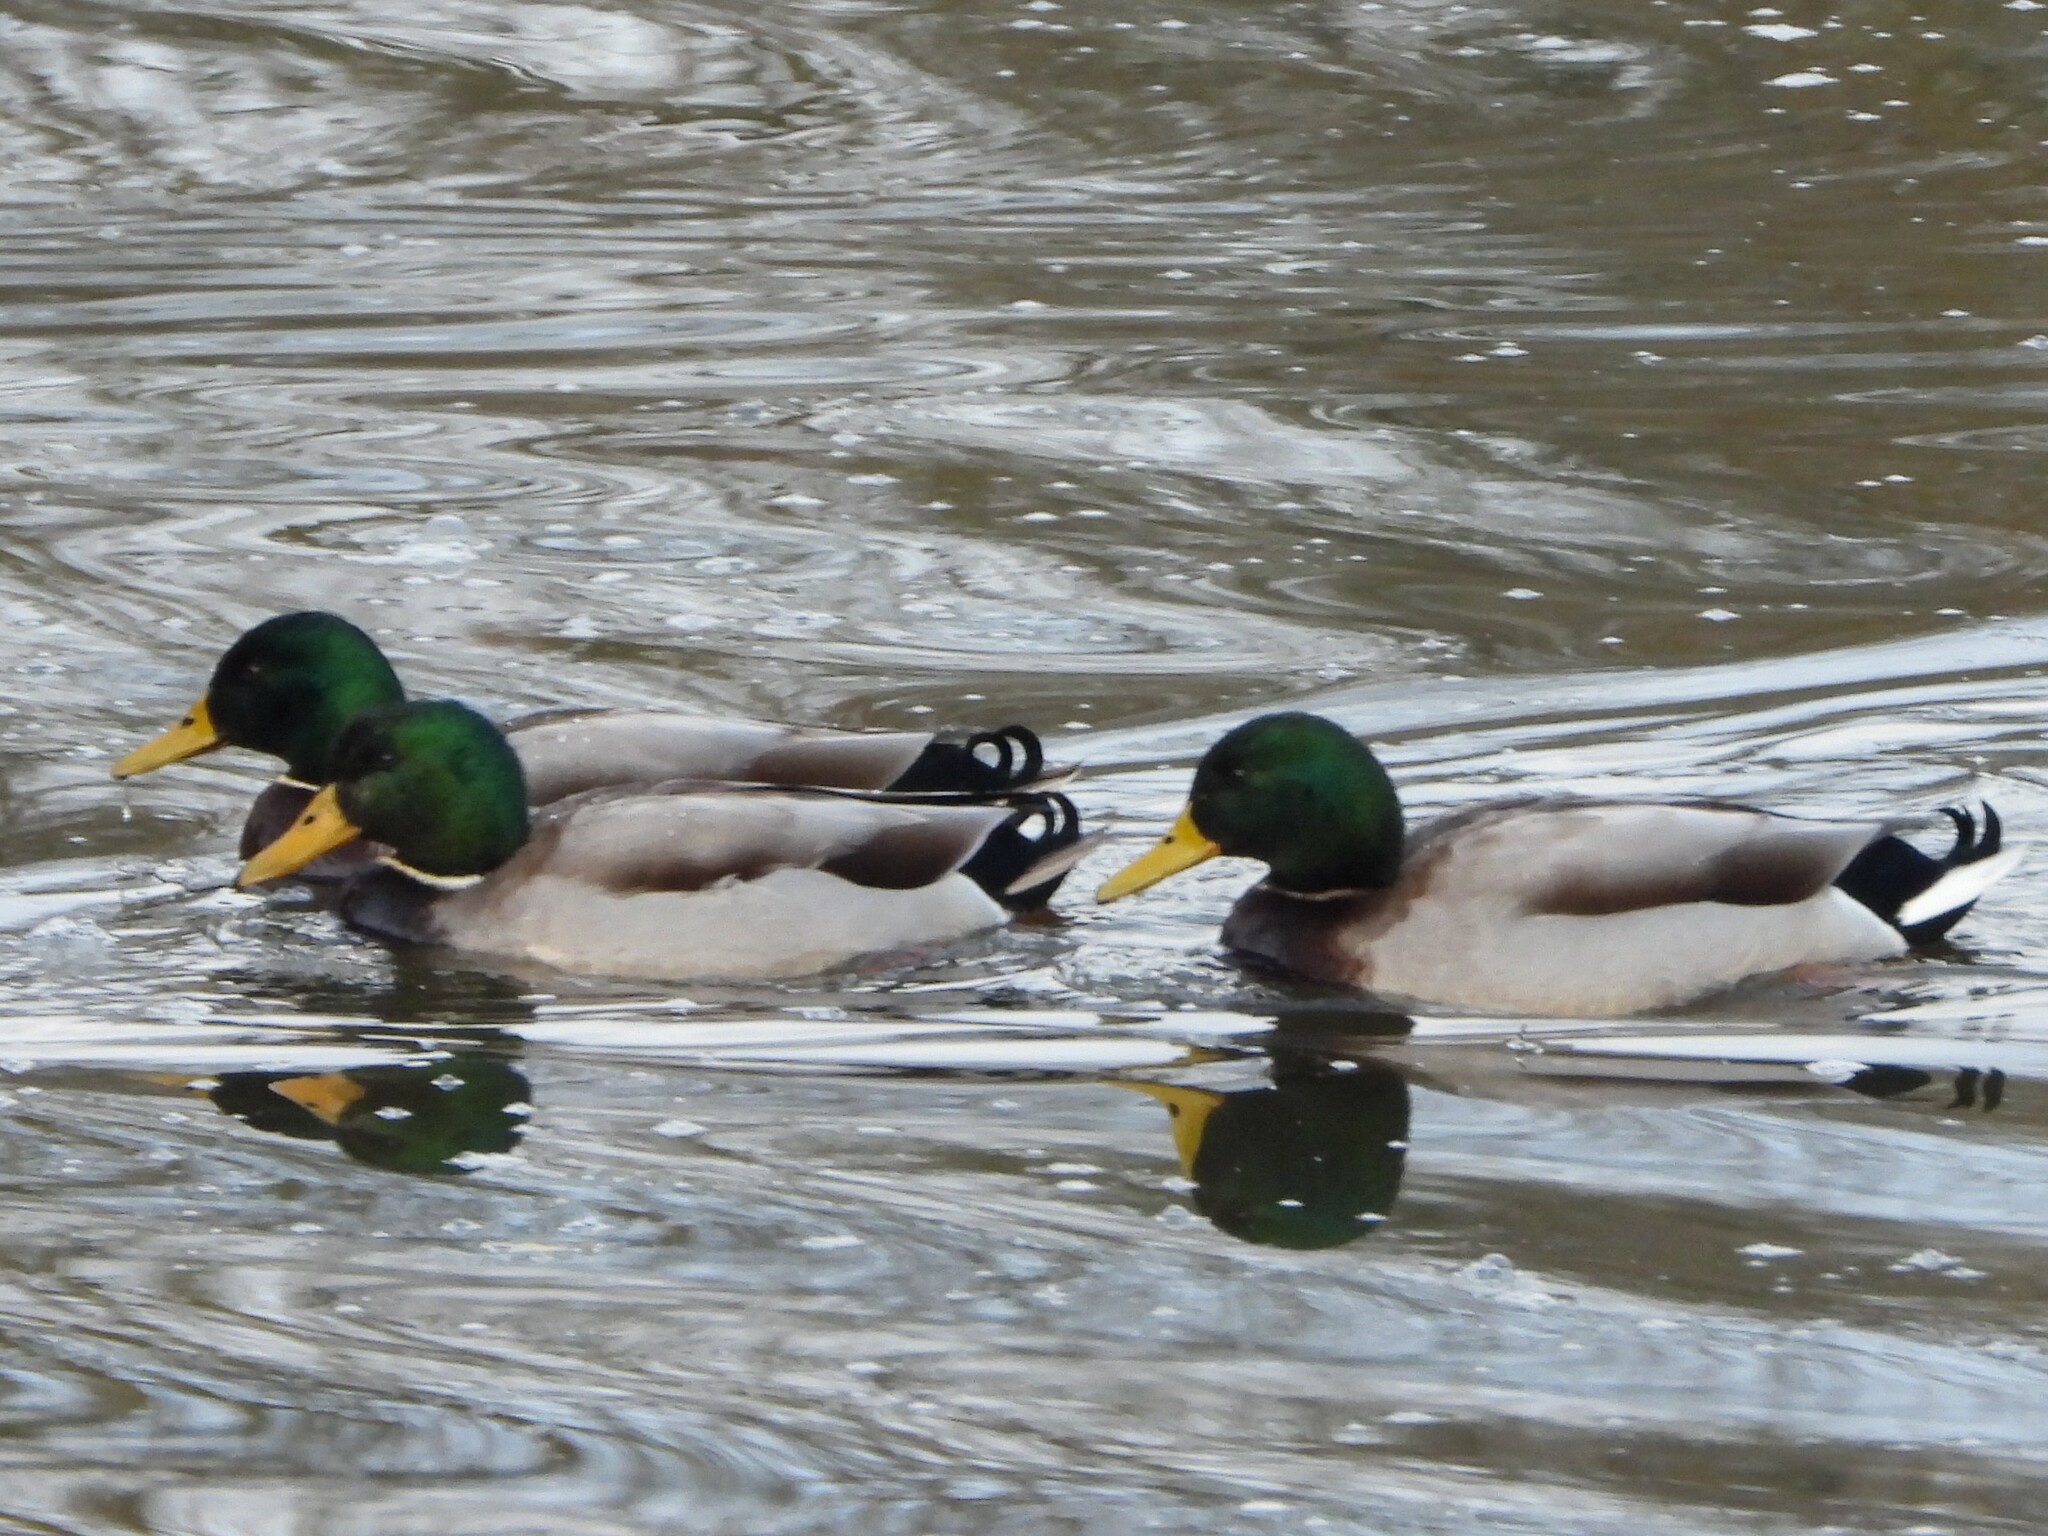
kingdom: Animalia
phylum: Chordata
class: Aves
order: Anseriformes
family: Anatidae
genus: Anas
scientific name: Anas platyrhynchos
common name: Mallard
